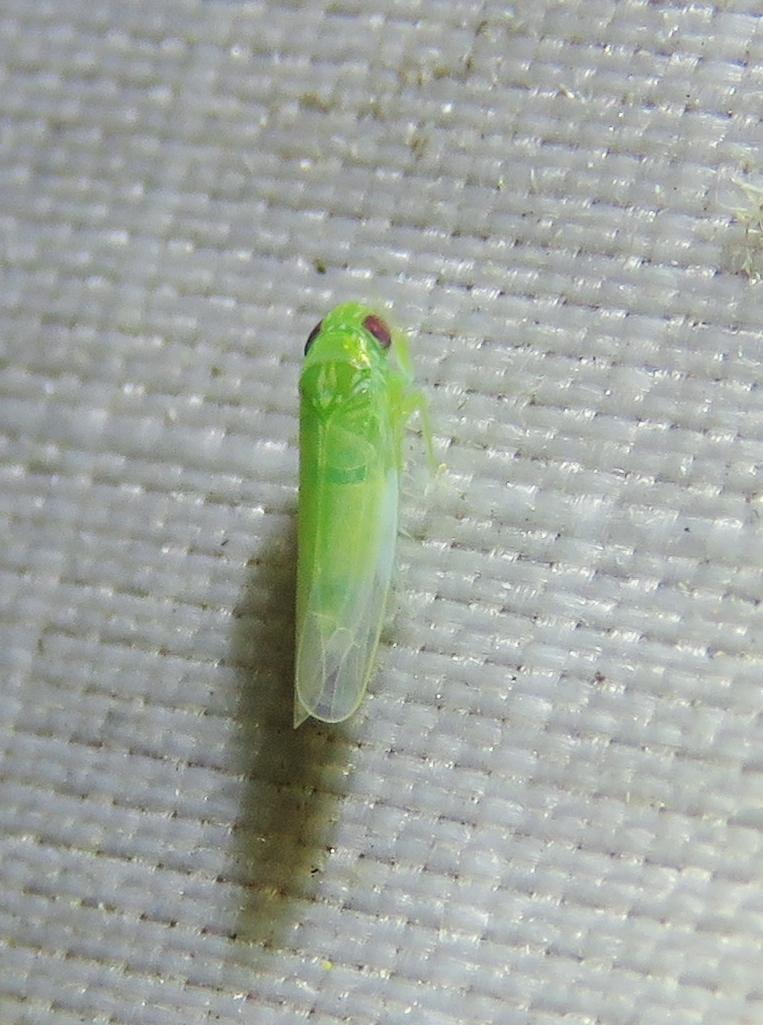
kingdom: Animalia
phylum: Arthropoda
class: Insecta
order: Hemiptera
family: Cicadellidae
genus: Empoasca
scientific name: Empoasca fabae
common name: Potato leafhopper
